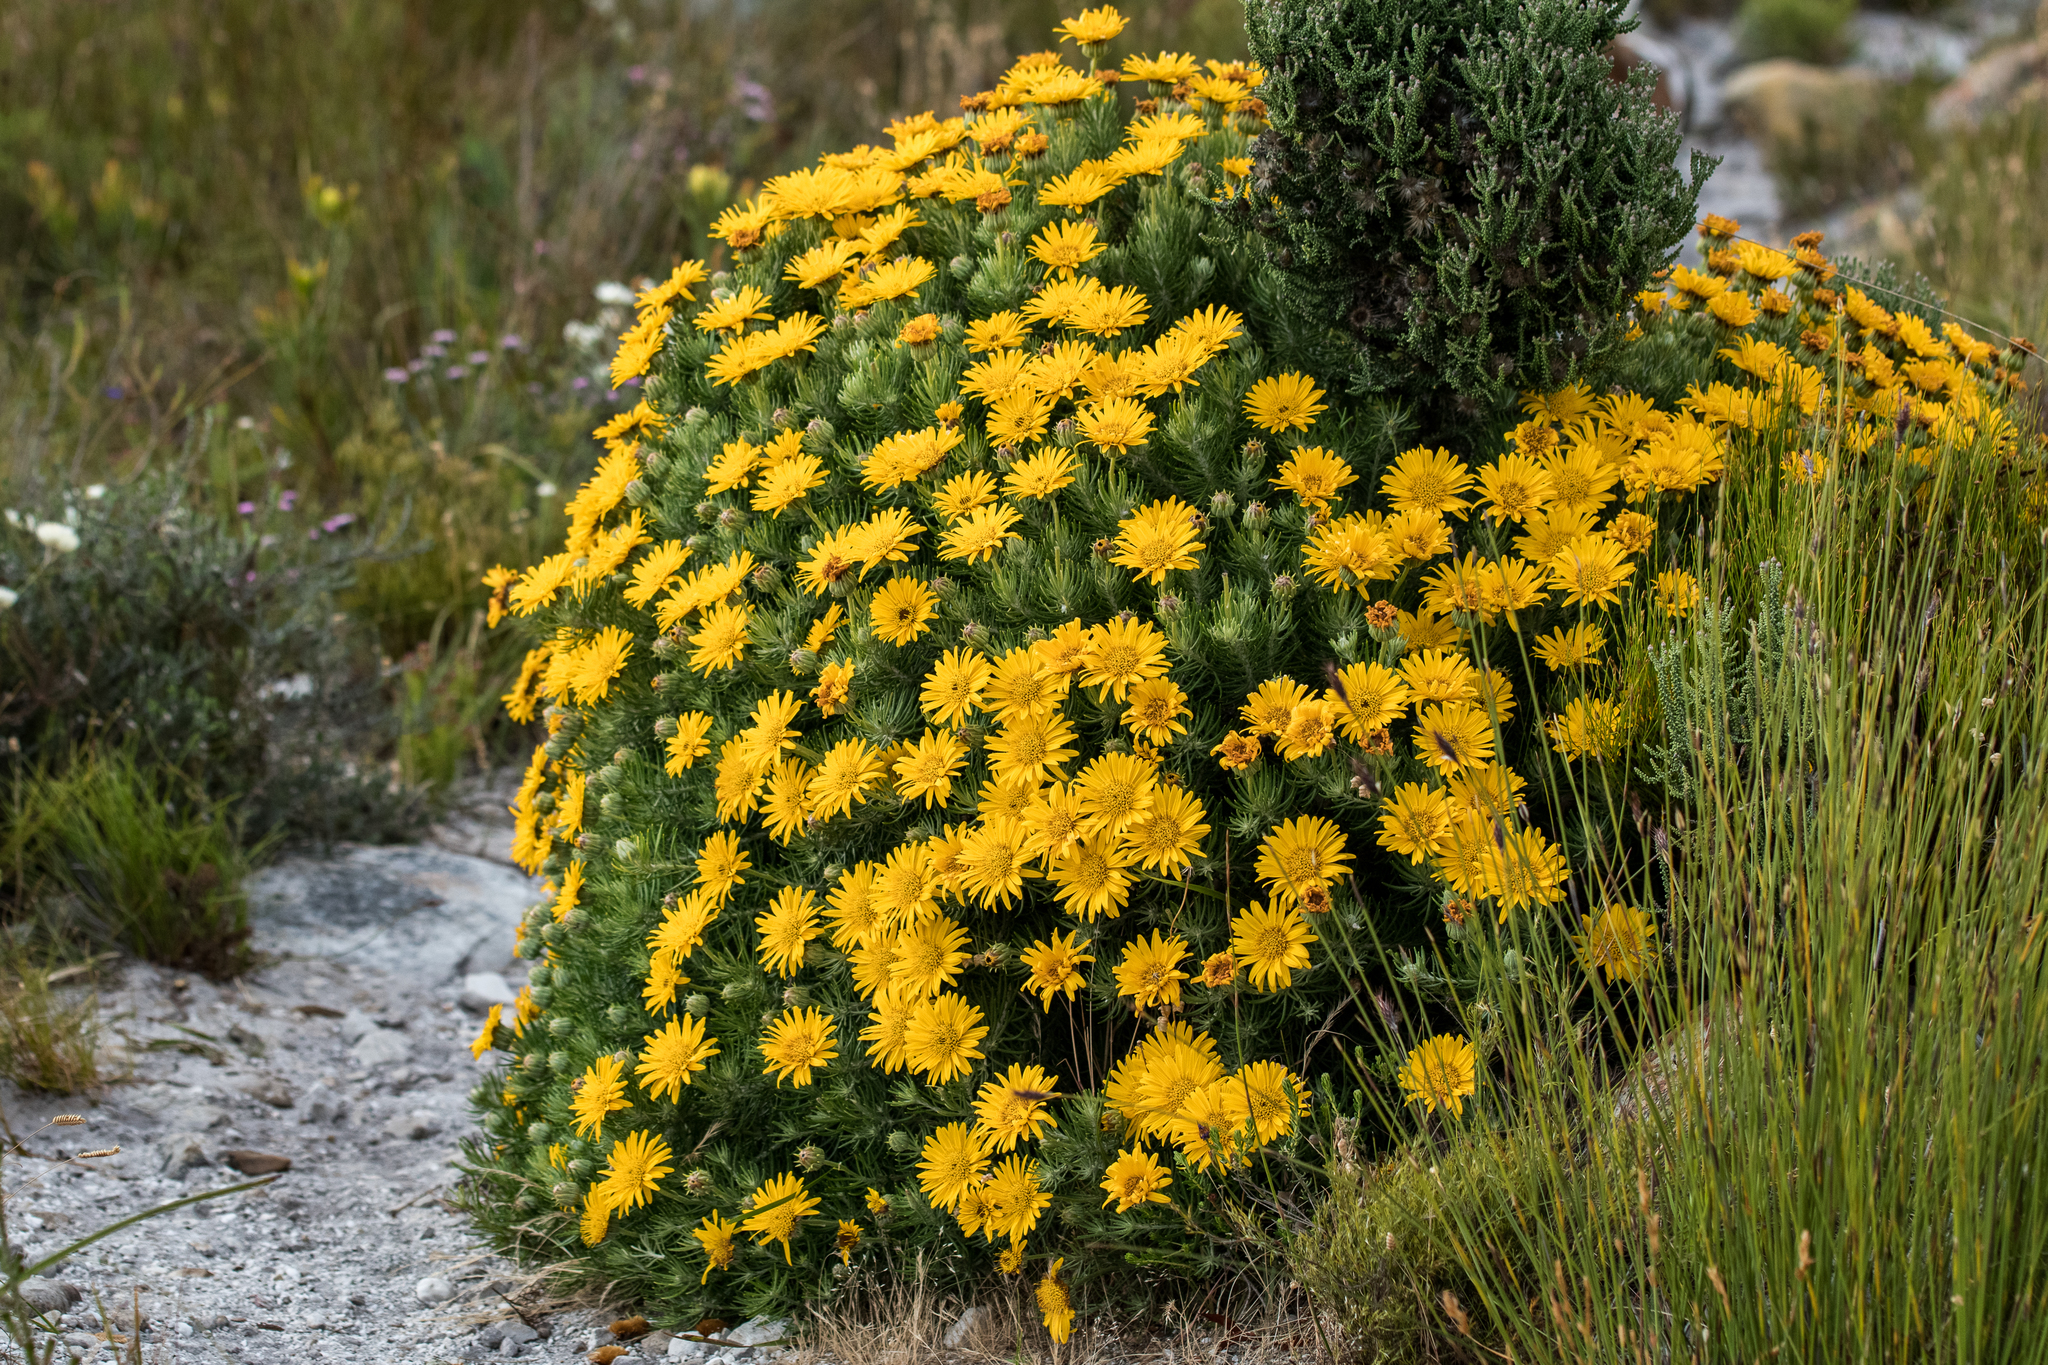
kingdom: Plantae
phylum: Tracheophyta
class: Magnoliopsida
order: Asterales
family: Asteraceae
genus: Heterolepis
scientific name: Heterolepis aliena
